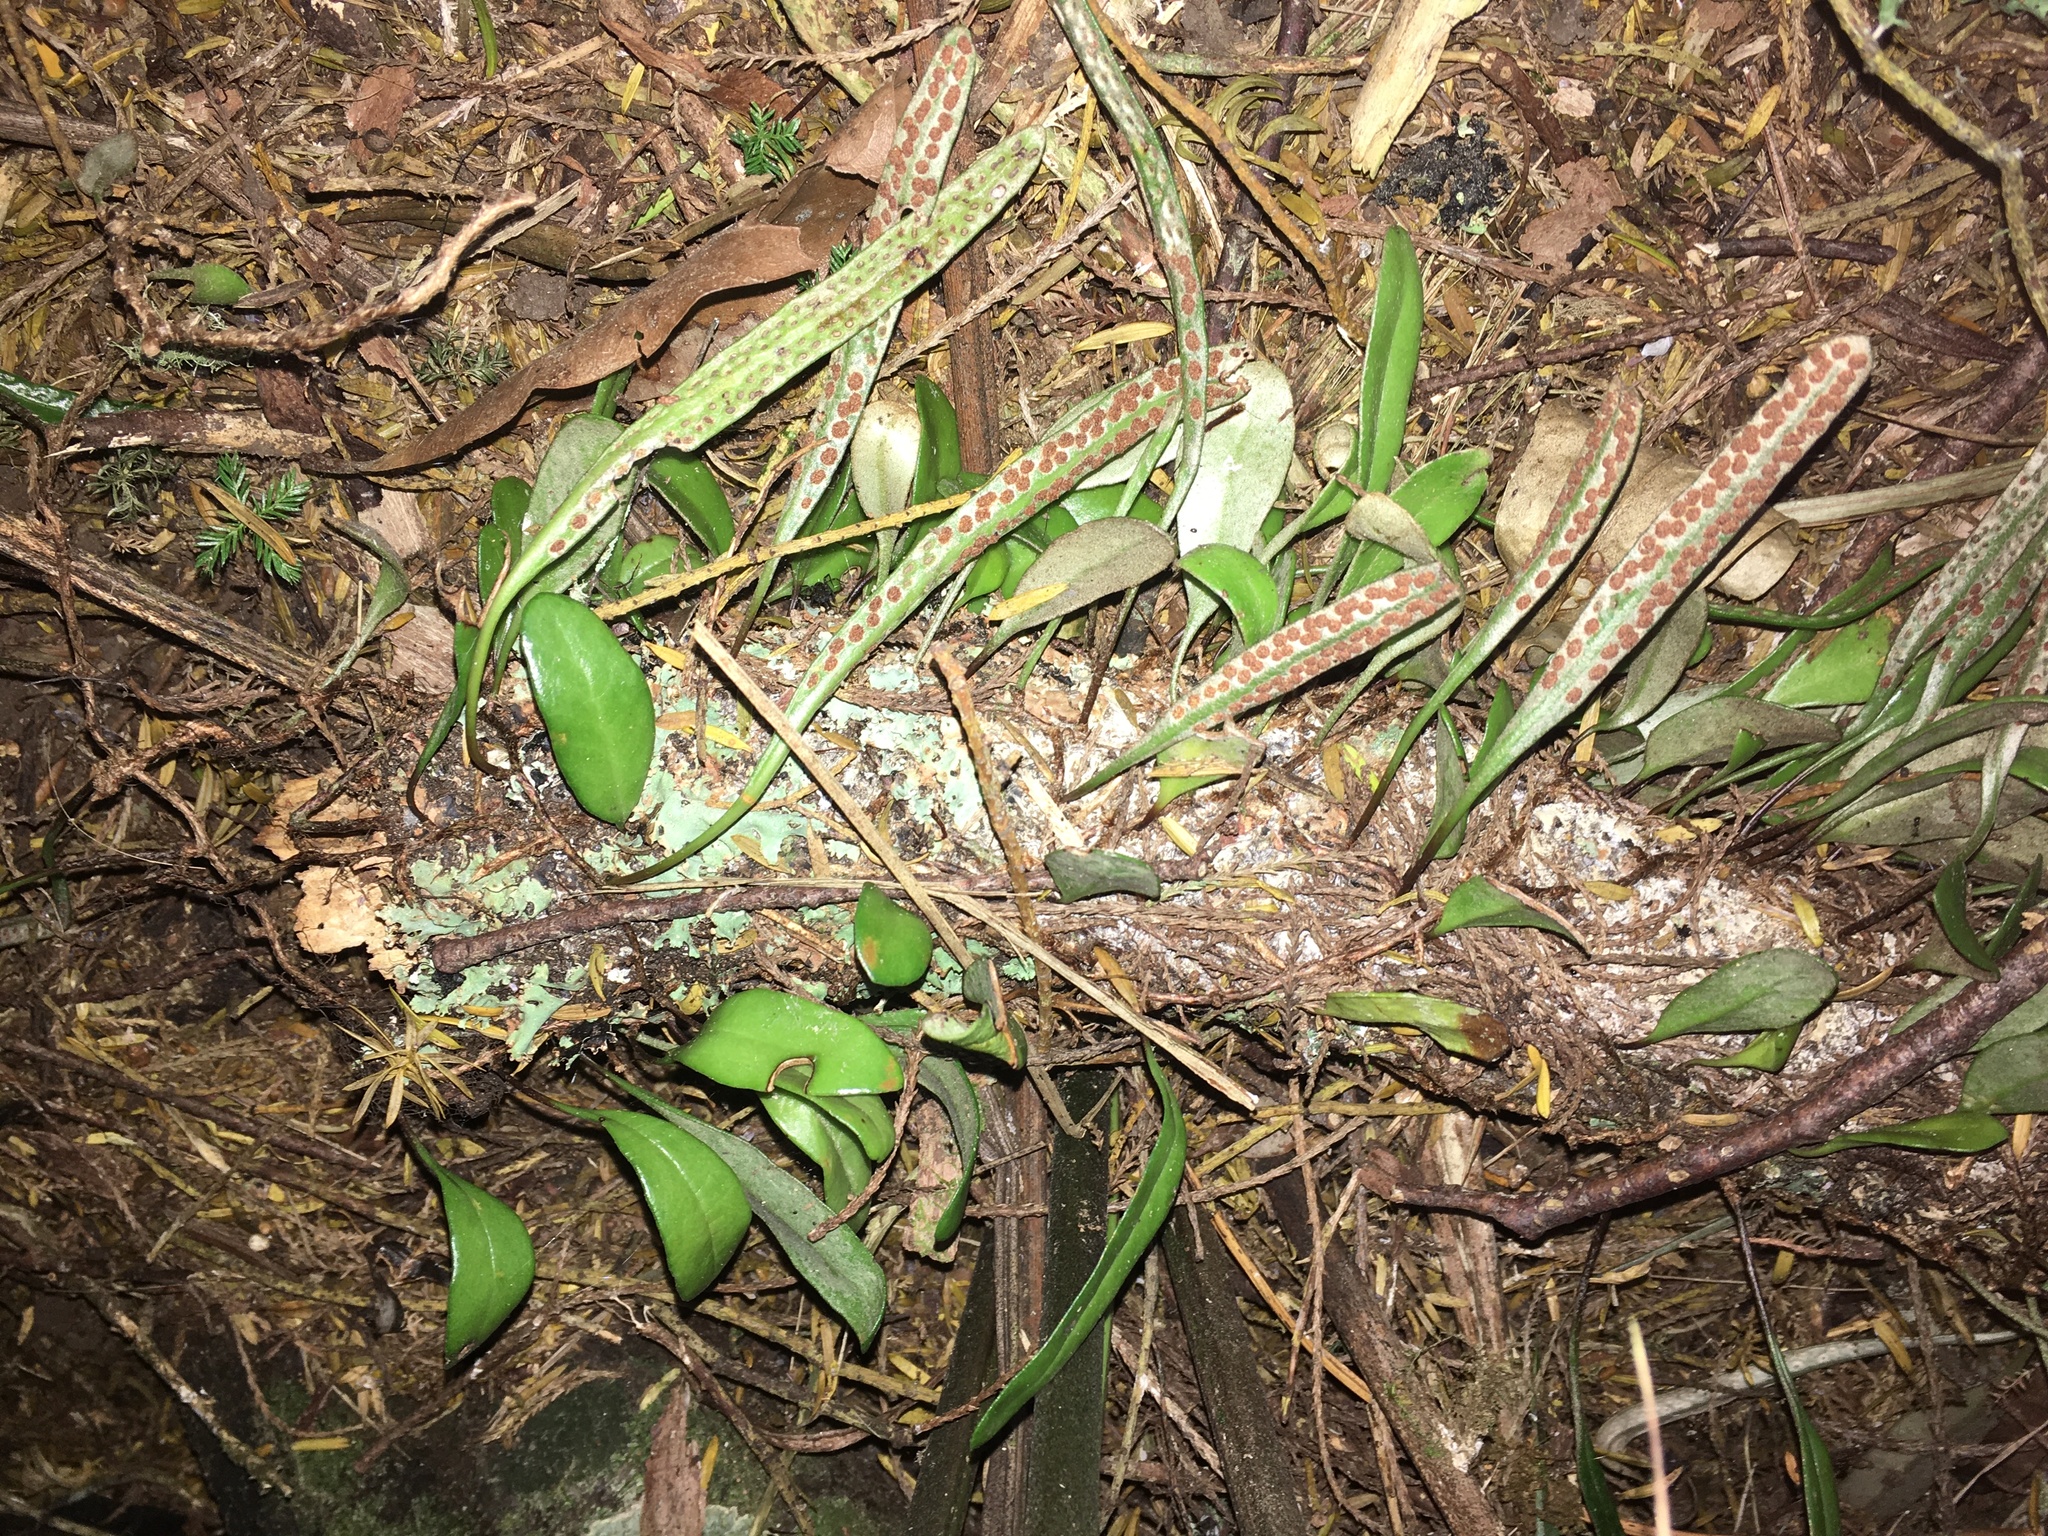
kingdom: Plantae
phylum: Tracheophyta
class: Polypodiopsida
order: Polypodiales
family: Polypodiaceae
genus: Pyrrosia
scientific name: Pyrrosia eleagnifolia
